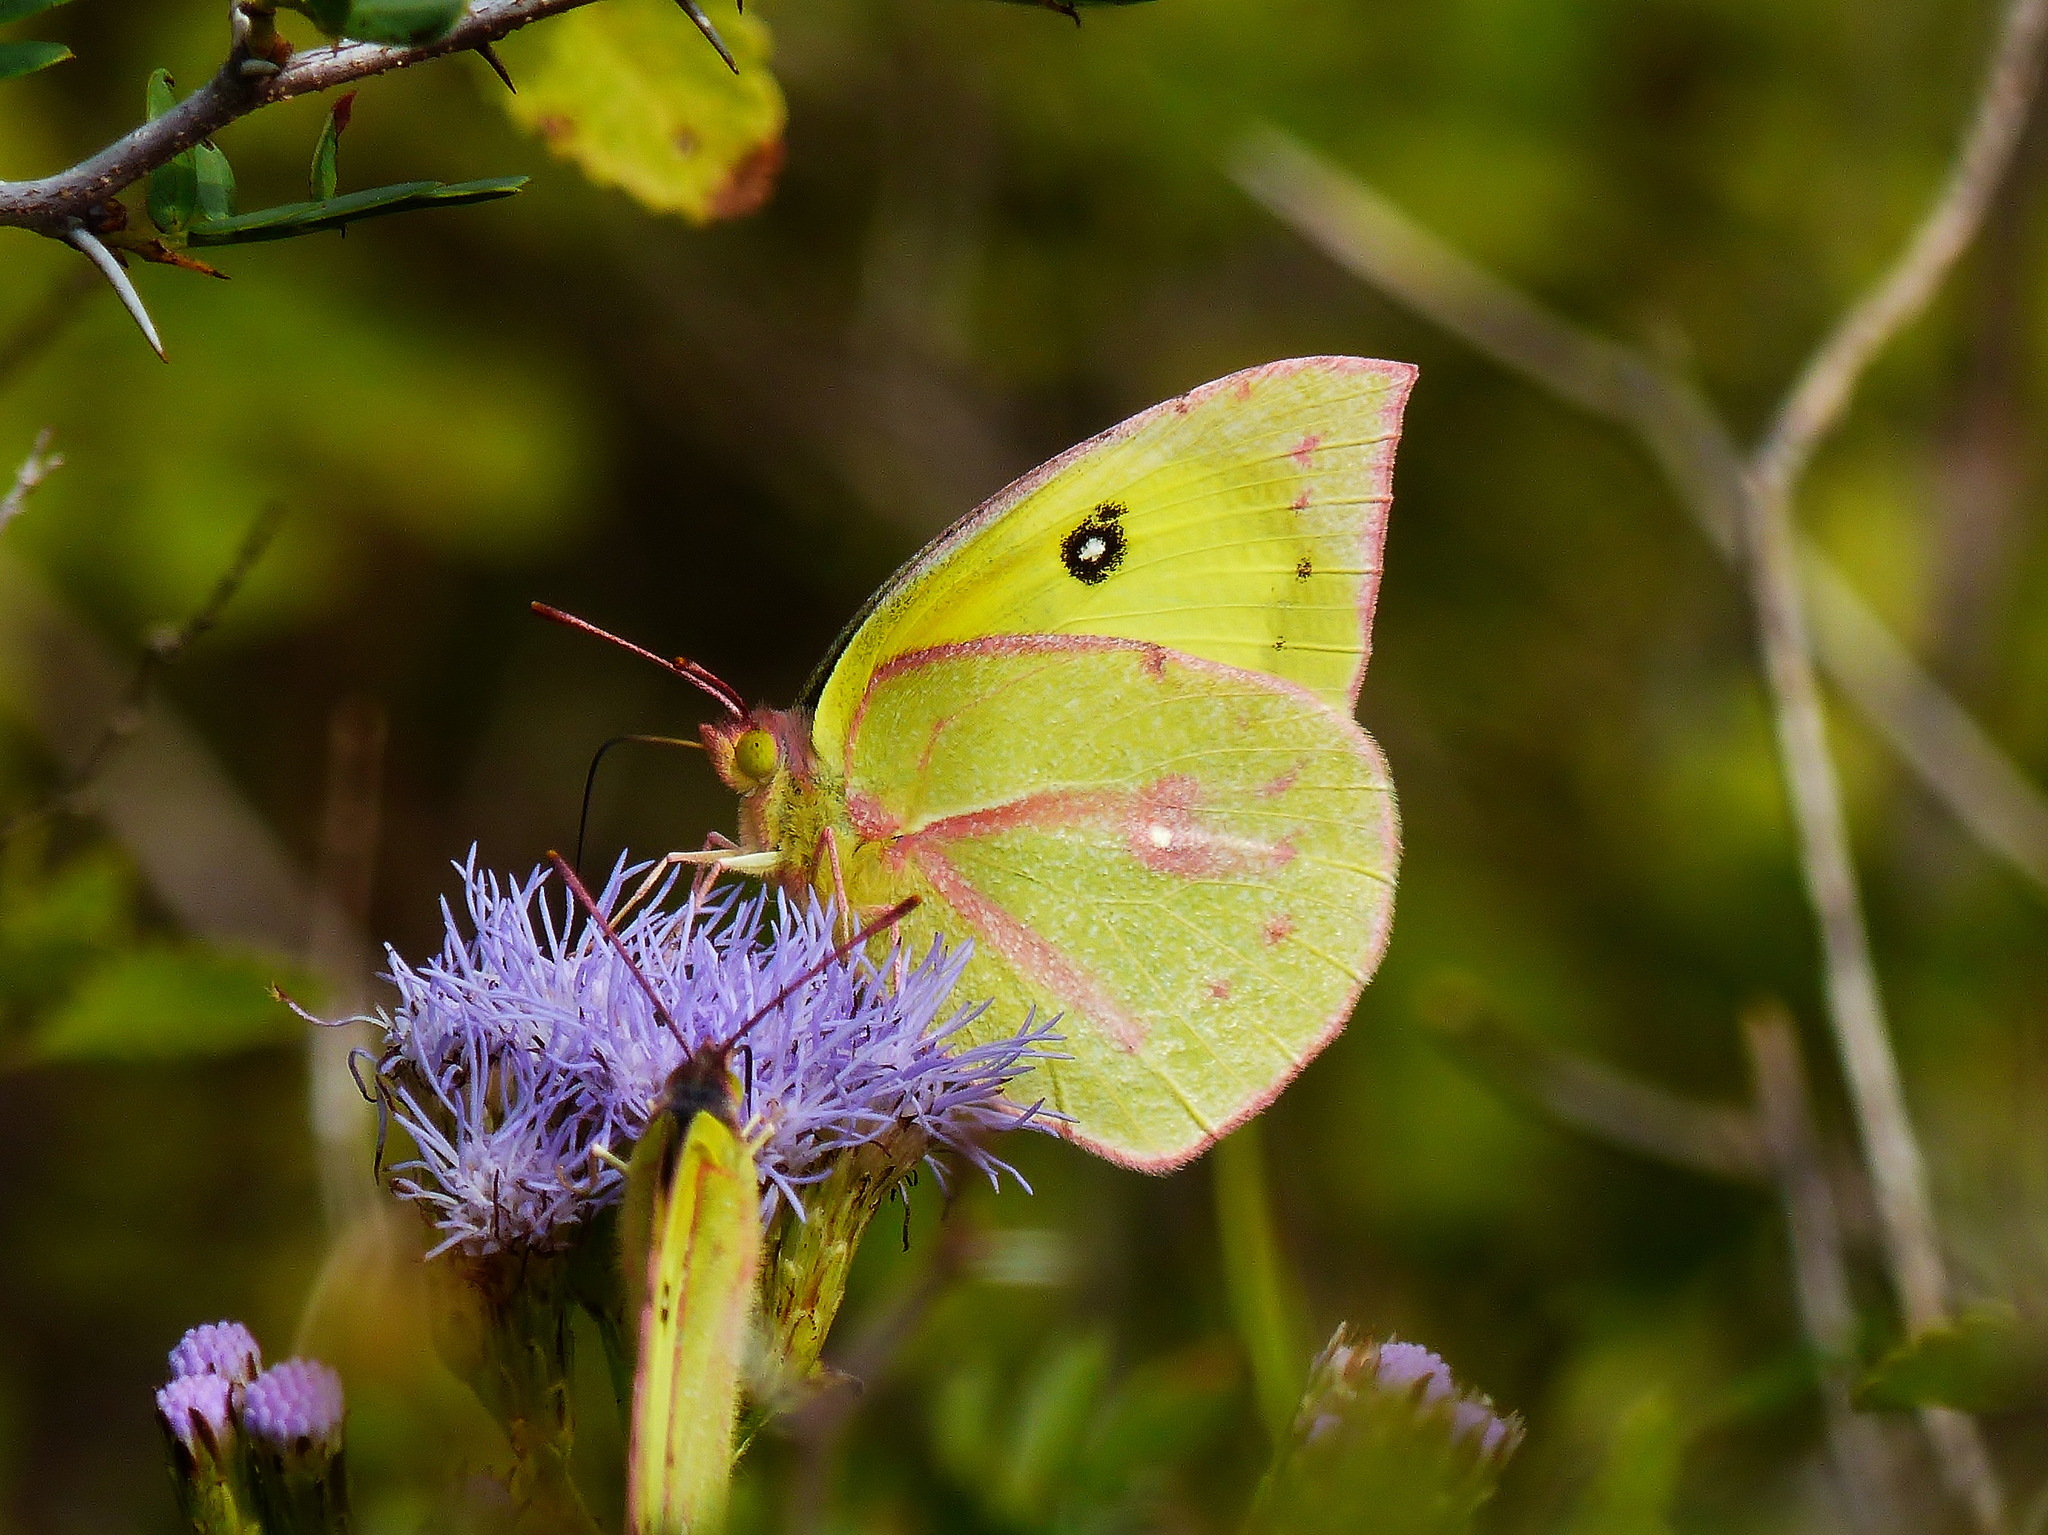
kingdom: Animalia
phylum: Arthropoda
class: Insecta
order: Lepidoptera
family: Pieridae
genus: Zerene
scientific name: Zerene cesonia
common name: Southern dogface
